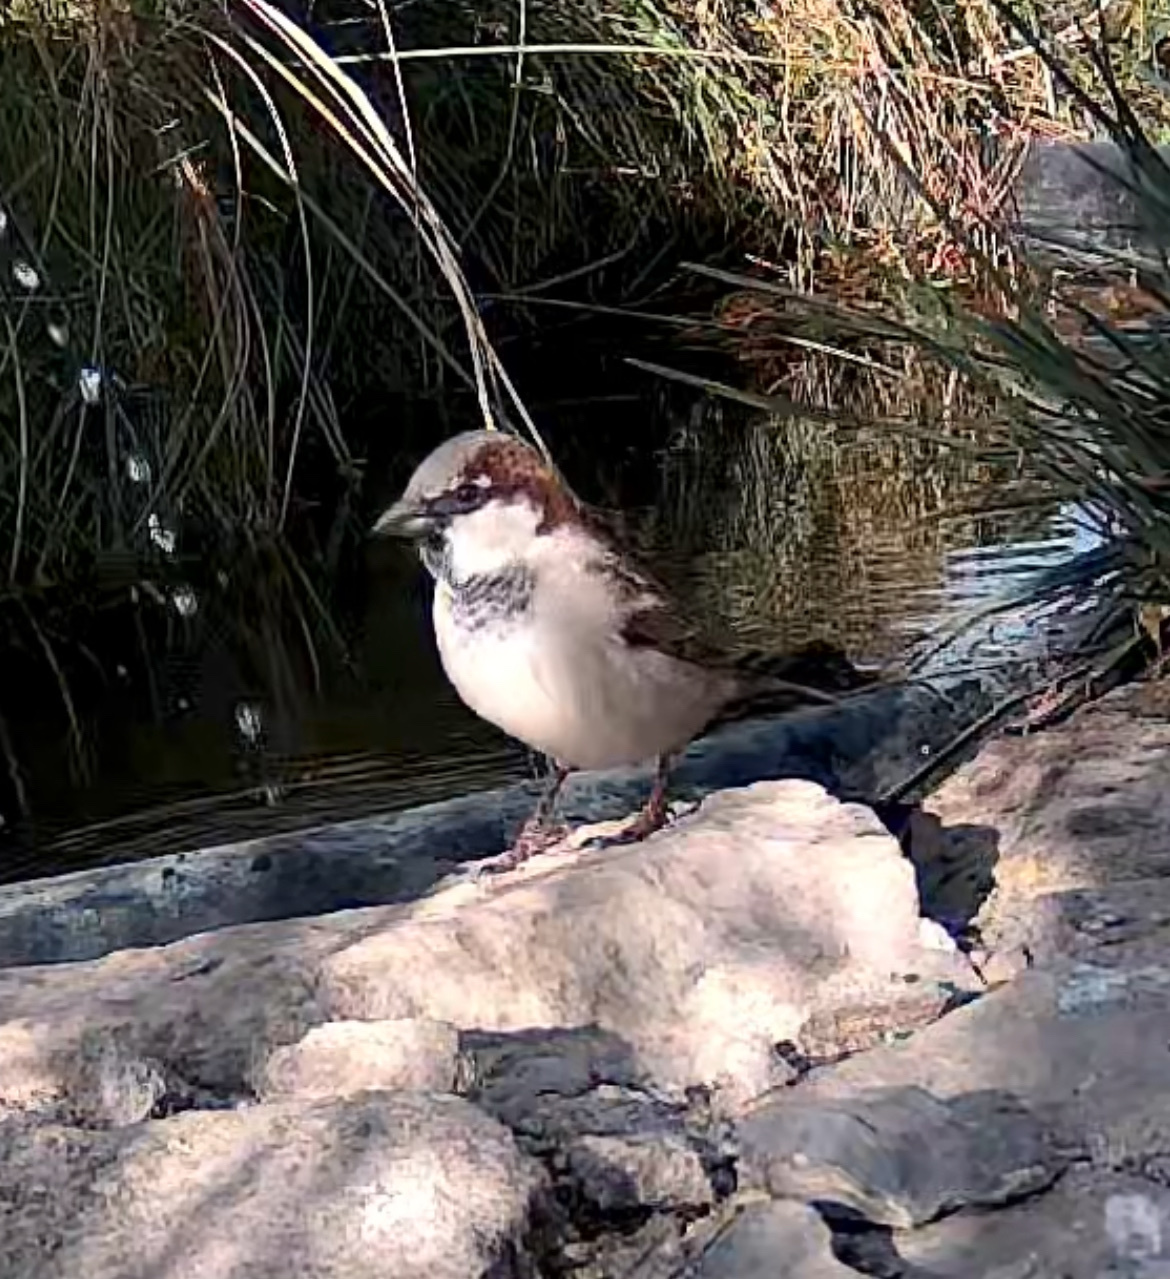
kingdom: Animalia
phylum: Chordata
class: Aves
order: Passeriformes
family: Passeridae
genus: Passer
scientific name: Passer domesticus
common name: House sparrow
